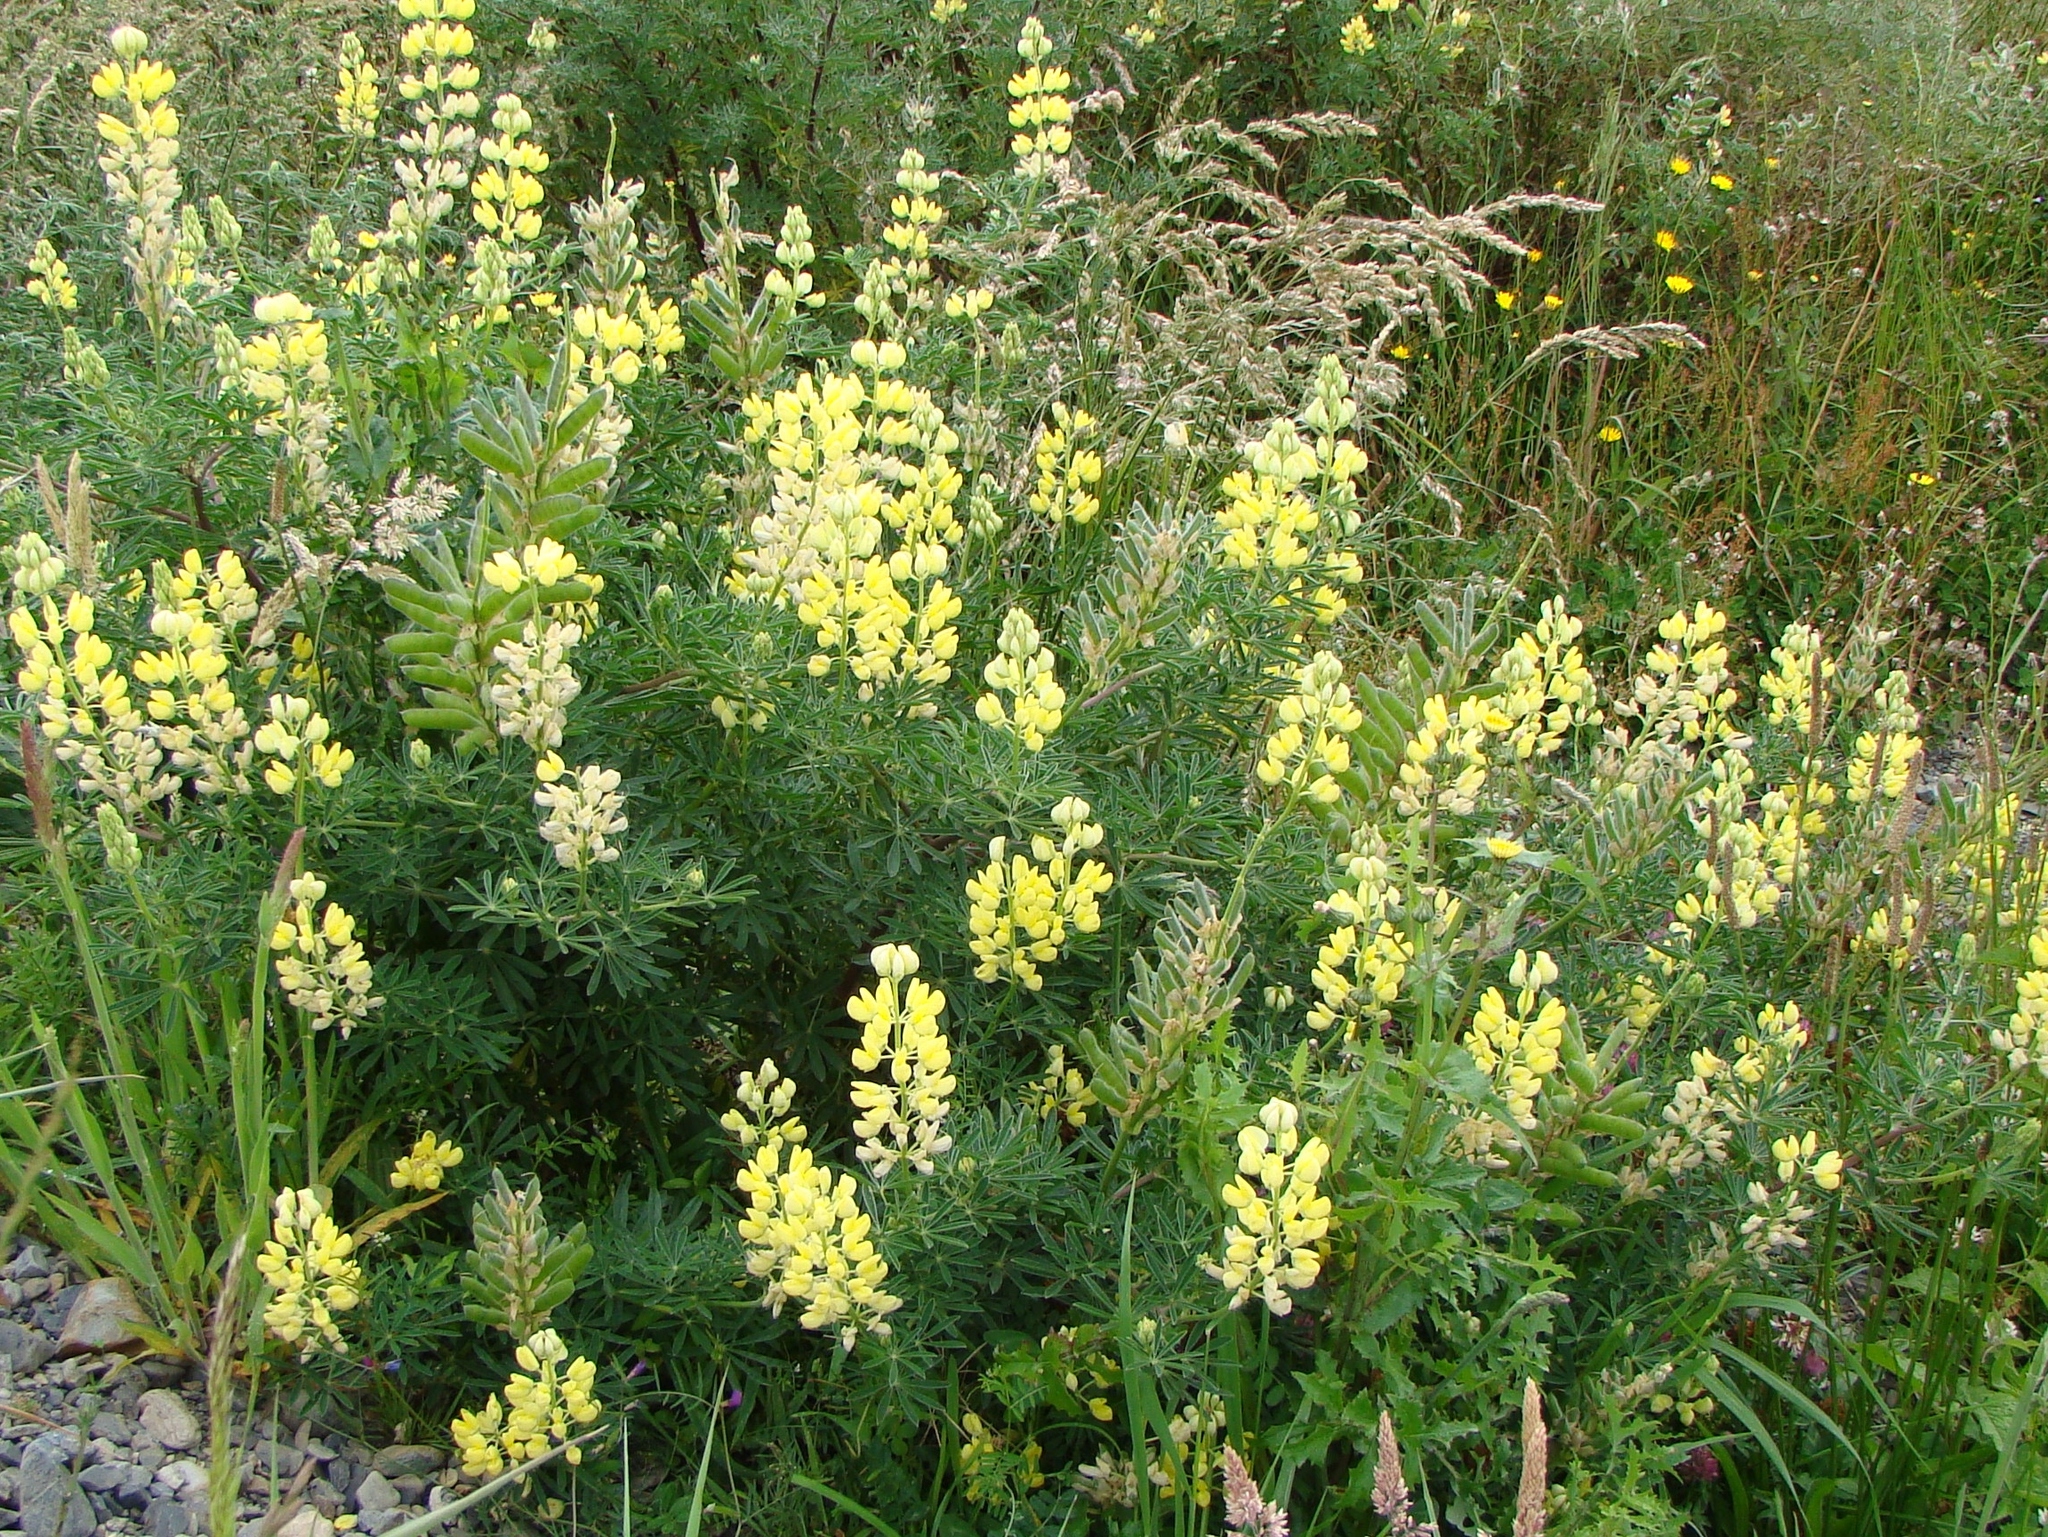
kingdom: Plantae
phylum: Tracheophyta
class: Magnoliopsida
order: Fabales
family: Fabaceae
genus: Lupinus
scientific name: Lupinus arboreus
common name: Yellow bush lupine
